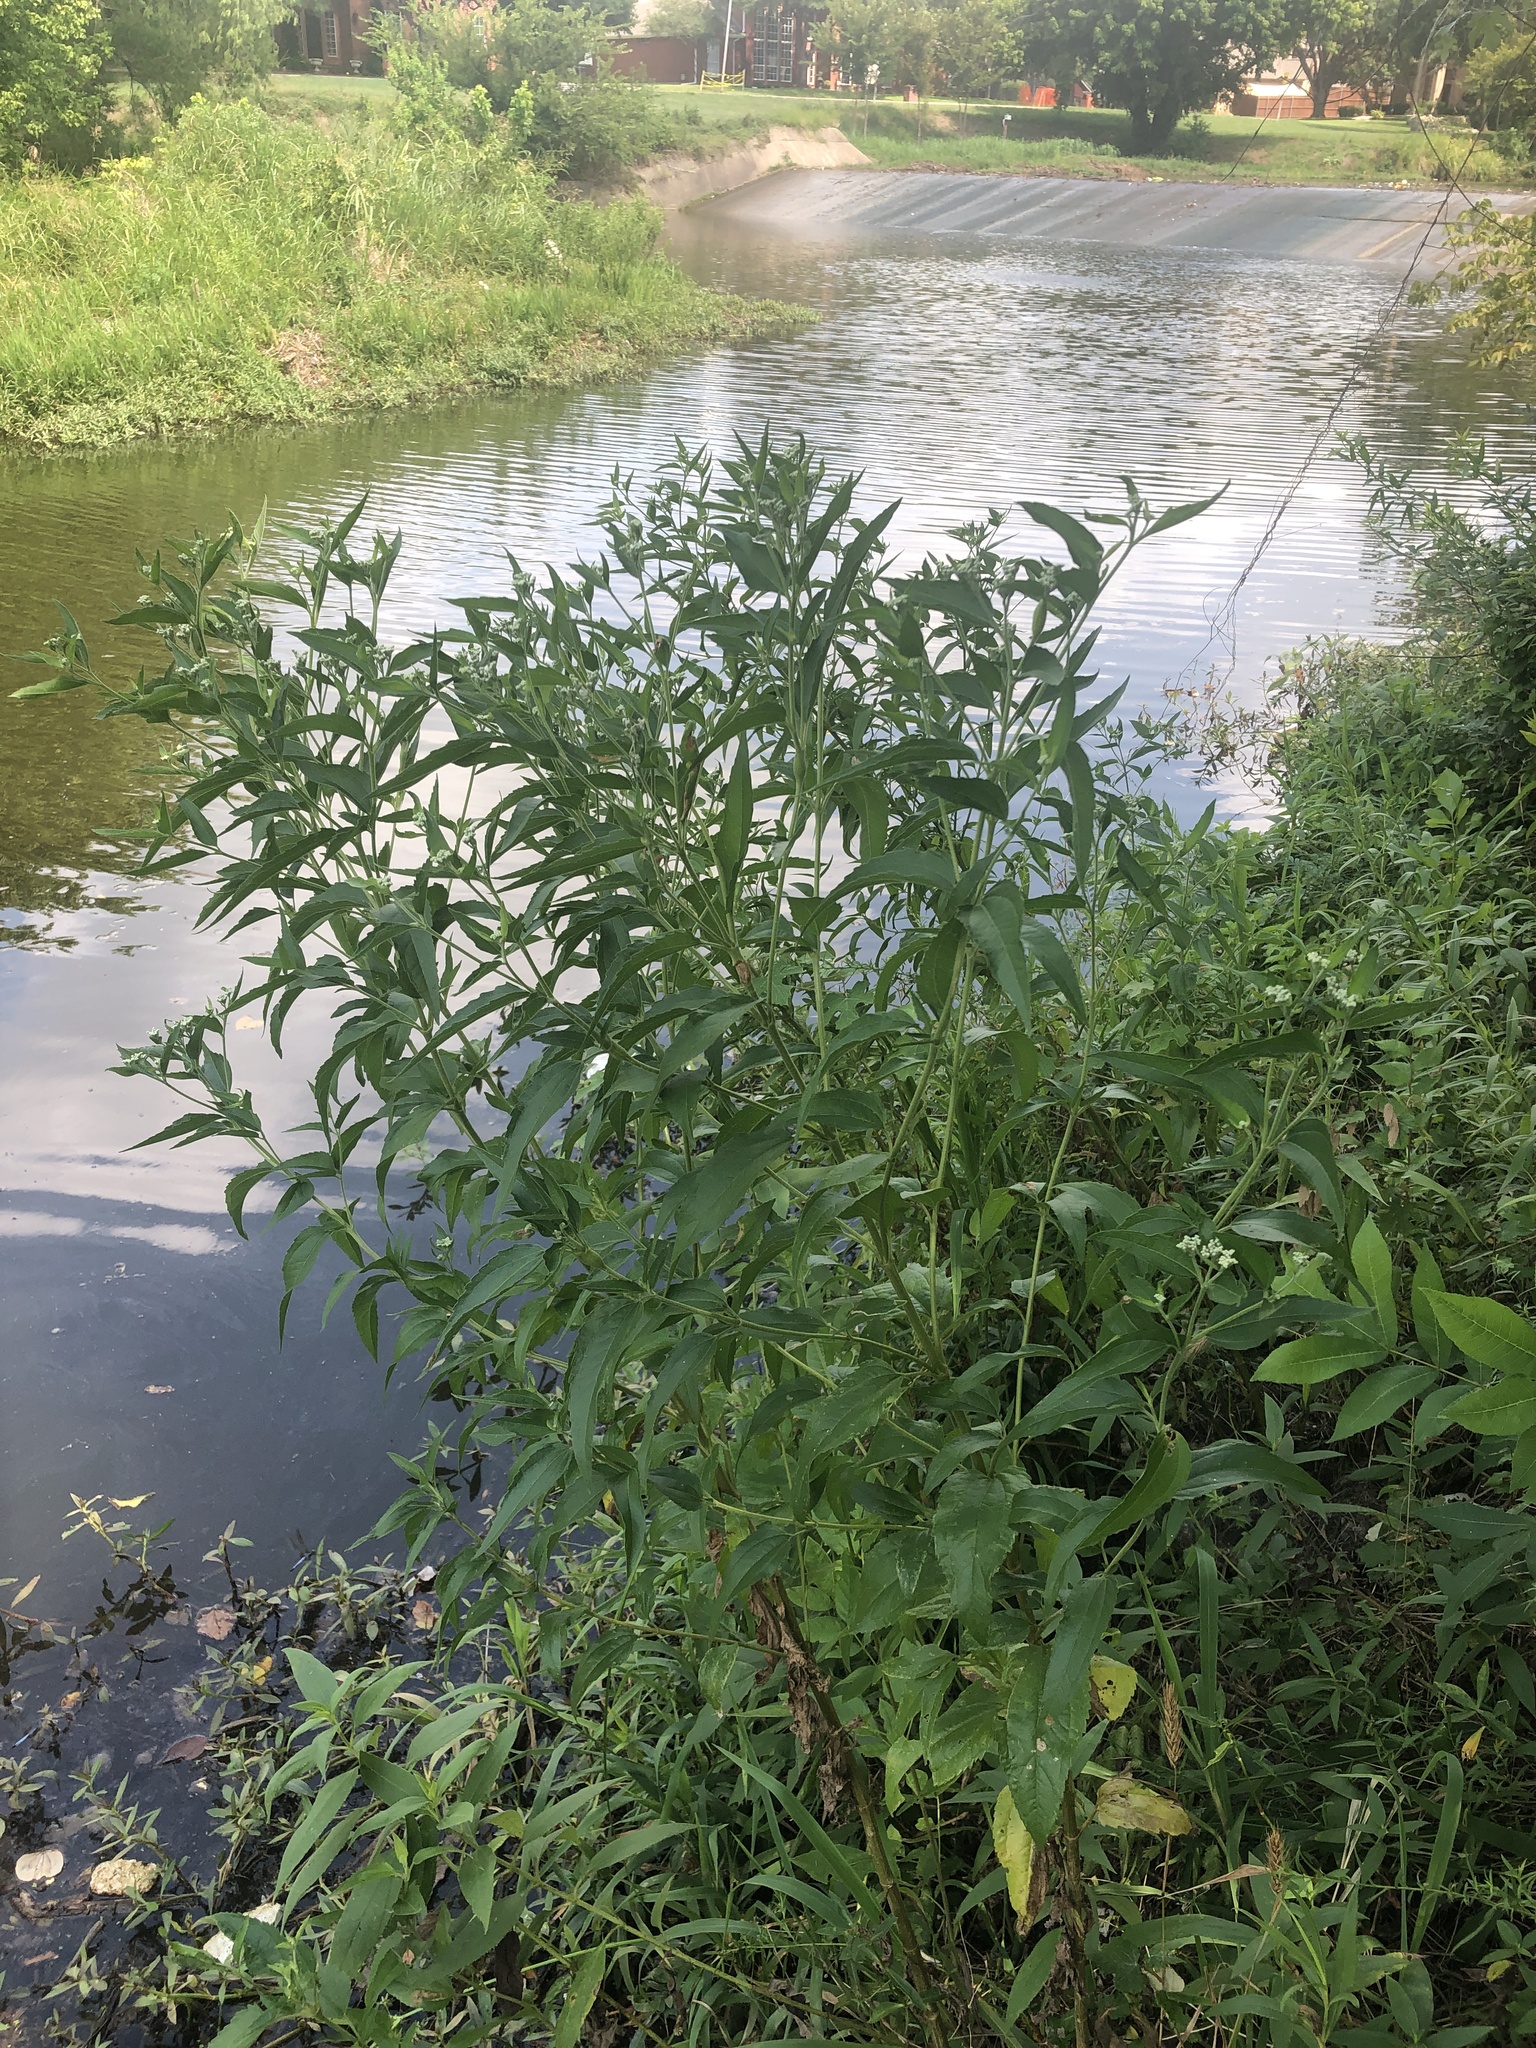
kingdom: Plantae
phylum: Tracheophyta
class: Magnoliopsida
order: Asterales
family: Asteraceae
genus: Eupatorium
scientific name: Eupatorium serotinum
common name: Late boneset
